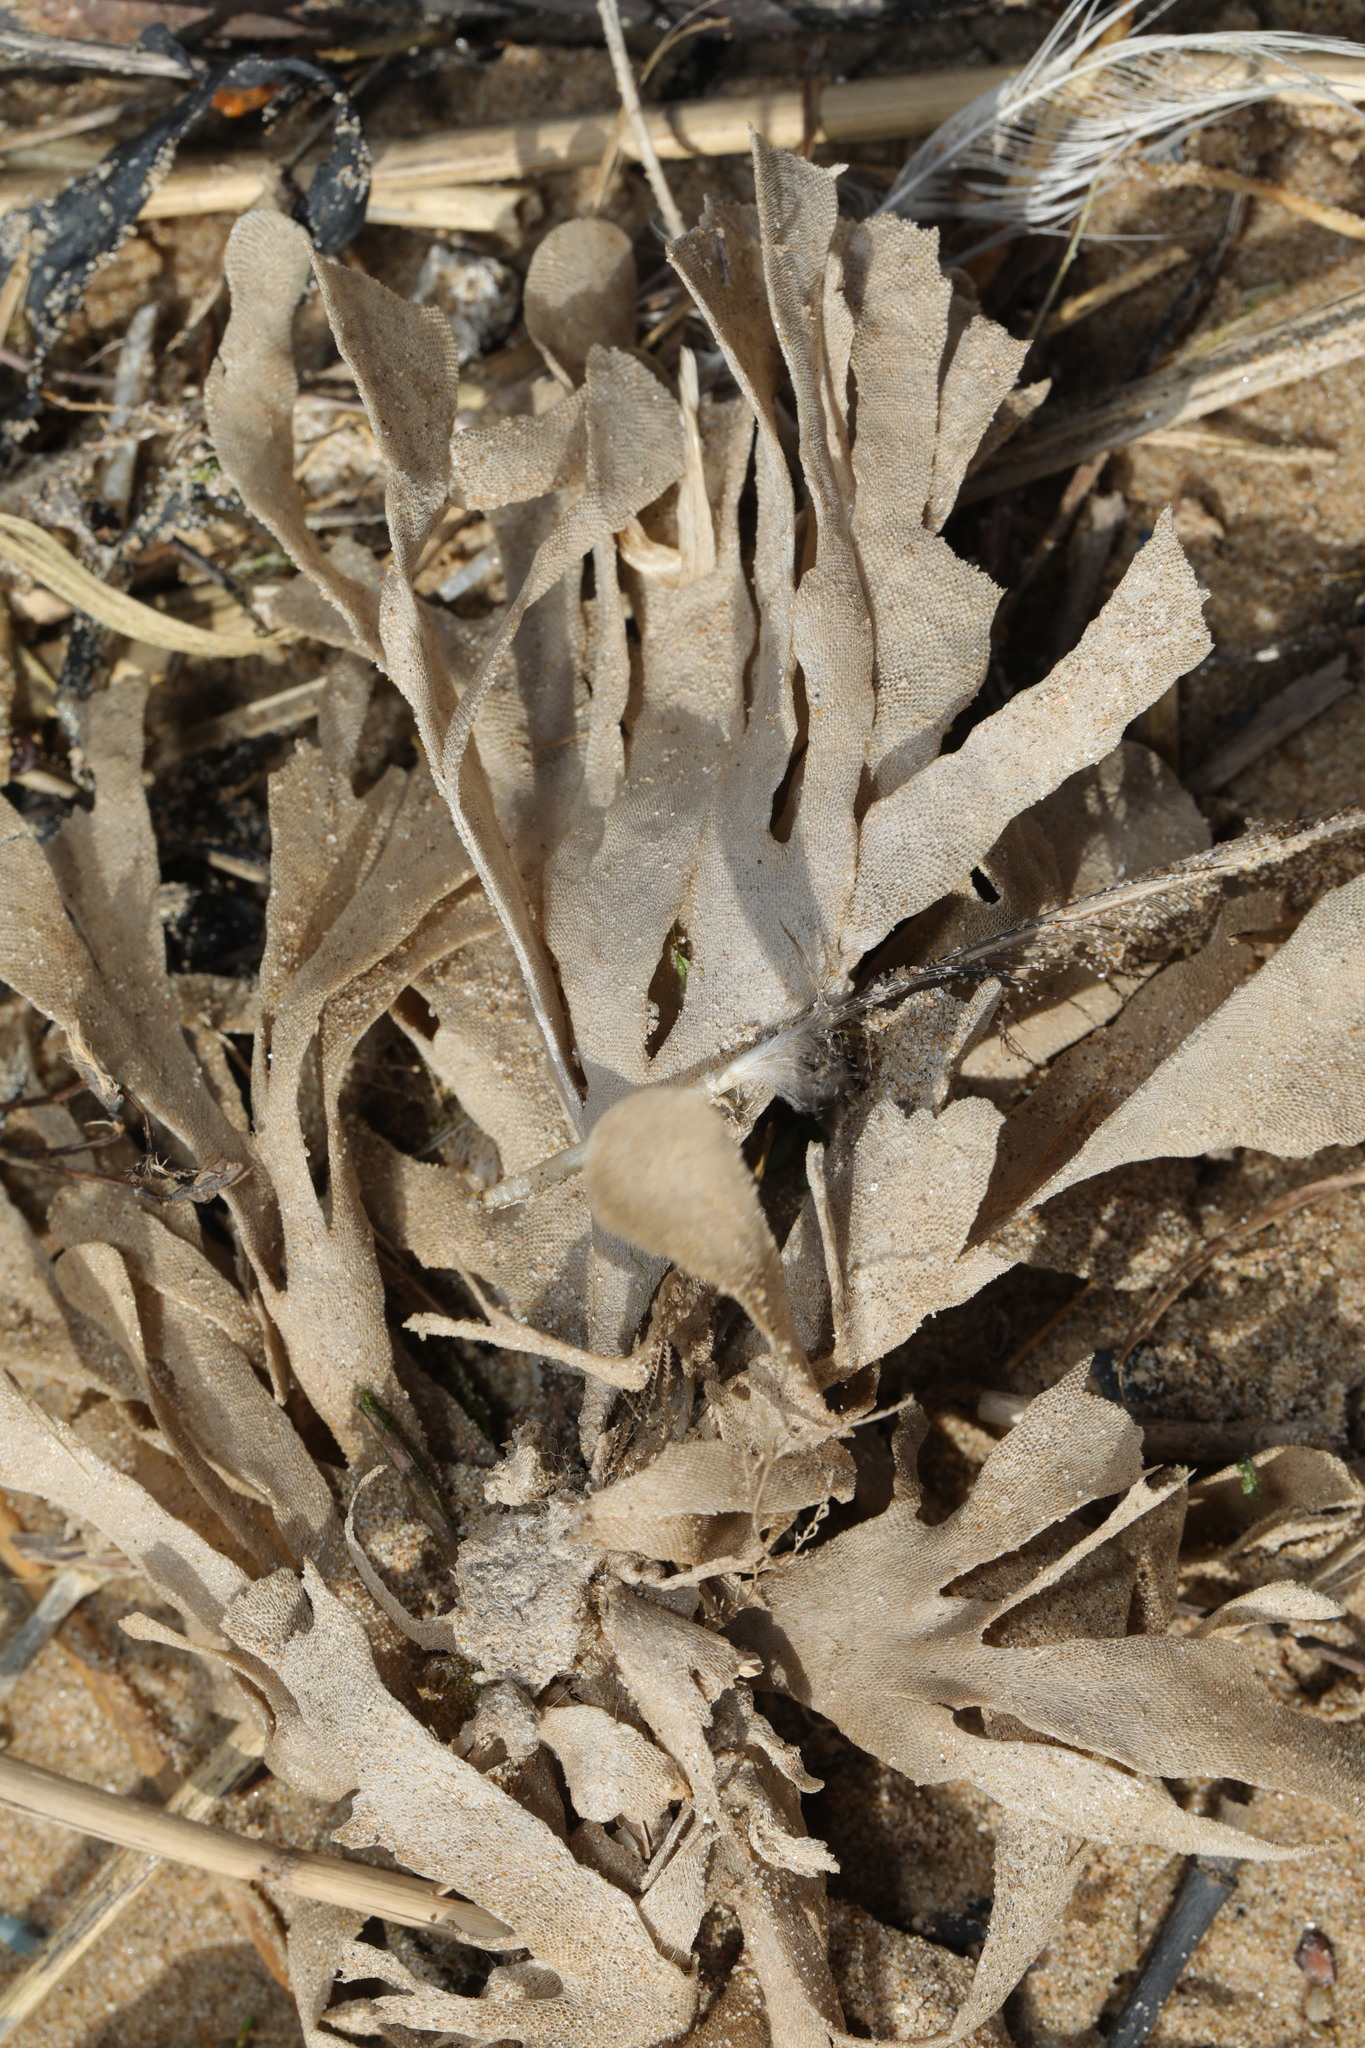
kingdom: Animalia
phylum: Bryozoa
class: Gymnolaemata
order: Cheilostomatida
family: Flustridae
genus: Flustra
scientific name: Flustra foliacea
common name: Hornwrack
